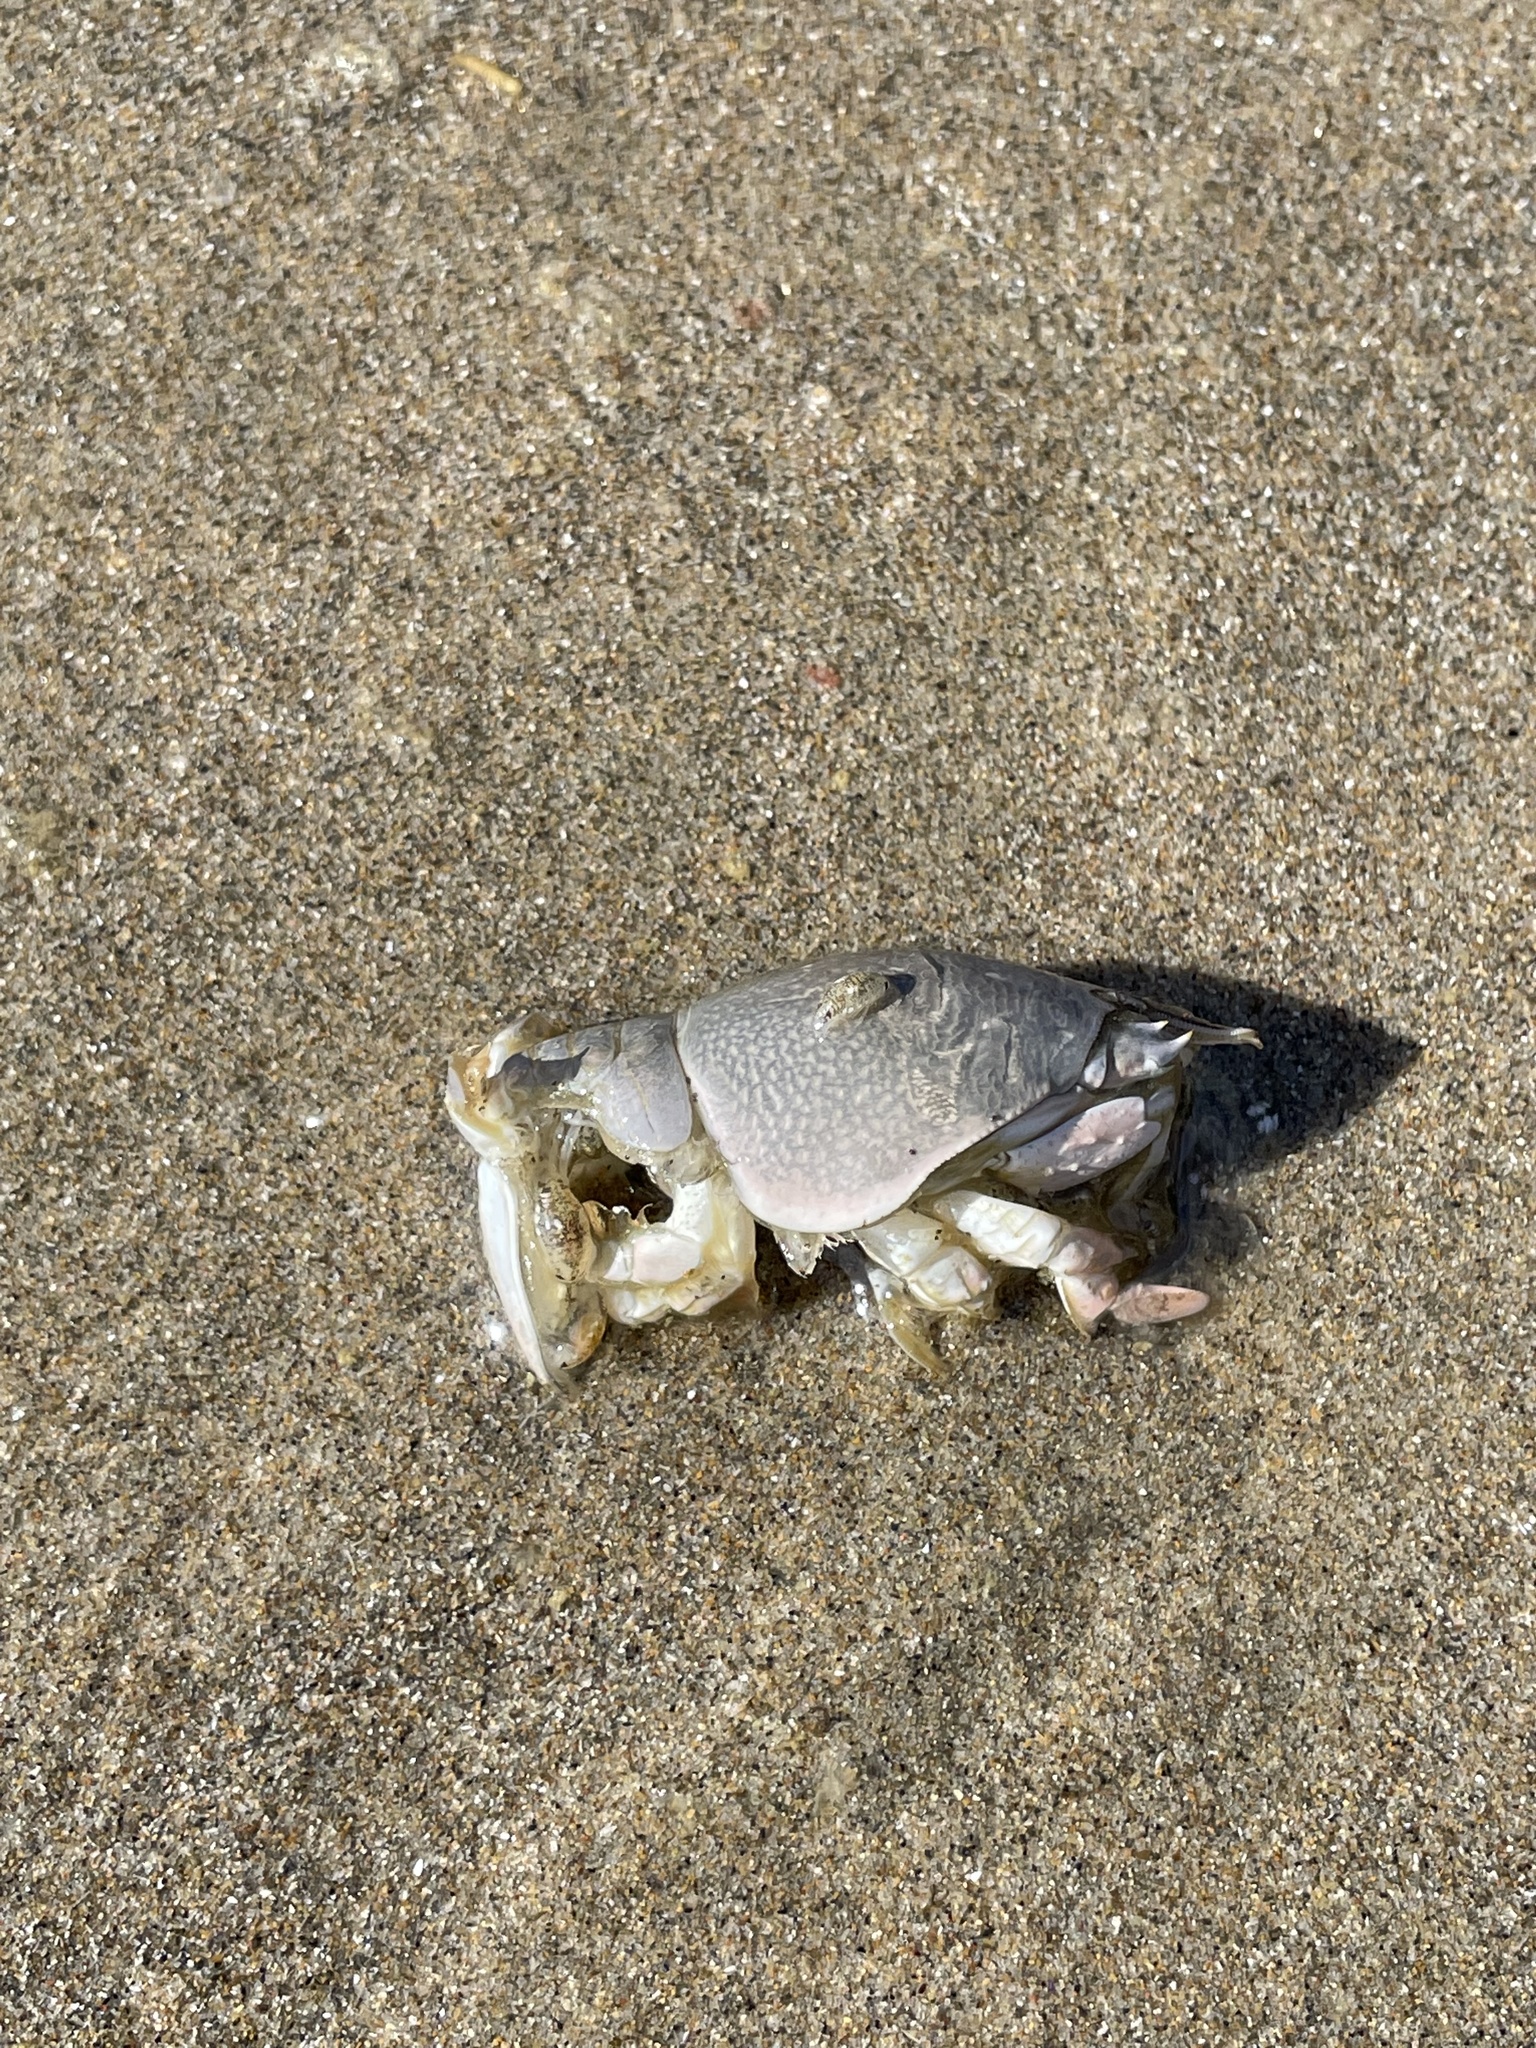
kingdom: Animalia
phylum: Arthropoda
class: Malacostraca
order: Decapoda
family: Hippidae
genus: Emerita
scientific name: Emerita analoga
